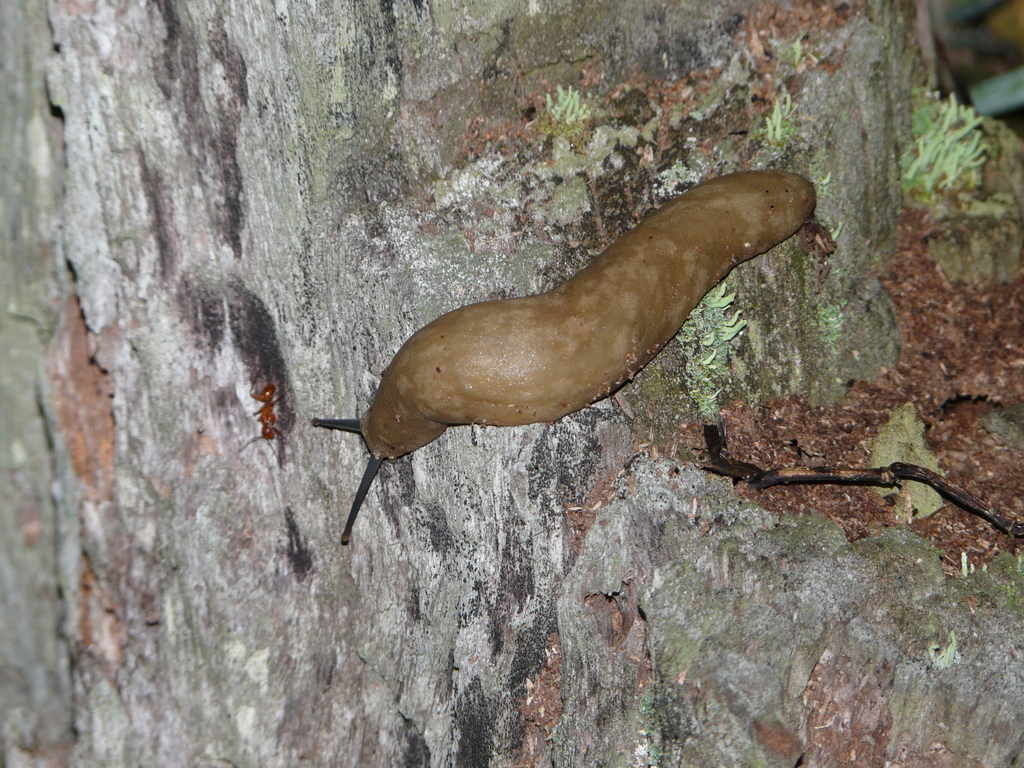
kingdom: Animalia
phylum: Mollusca
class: Gastropoda
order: Systellommatophora
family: Veronicellidae
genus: Leidyula
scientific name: Leidyula sloanii
